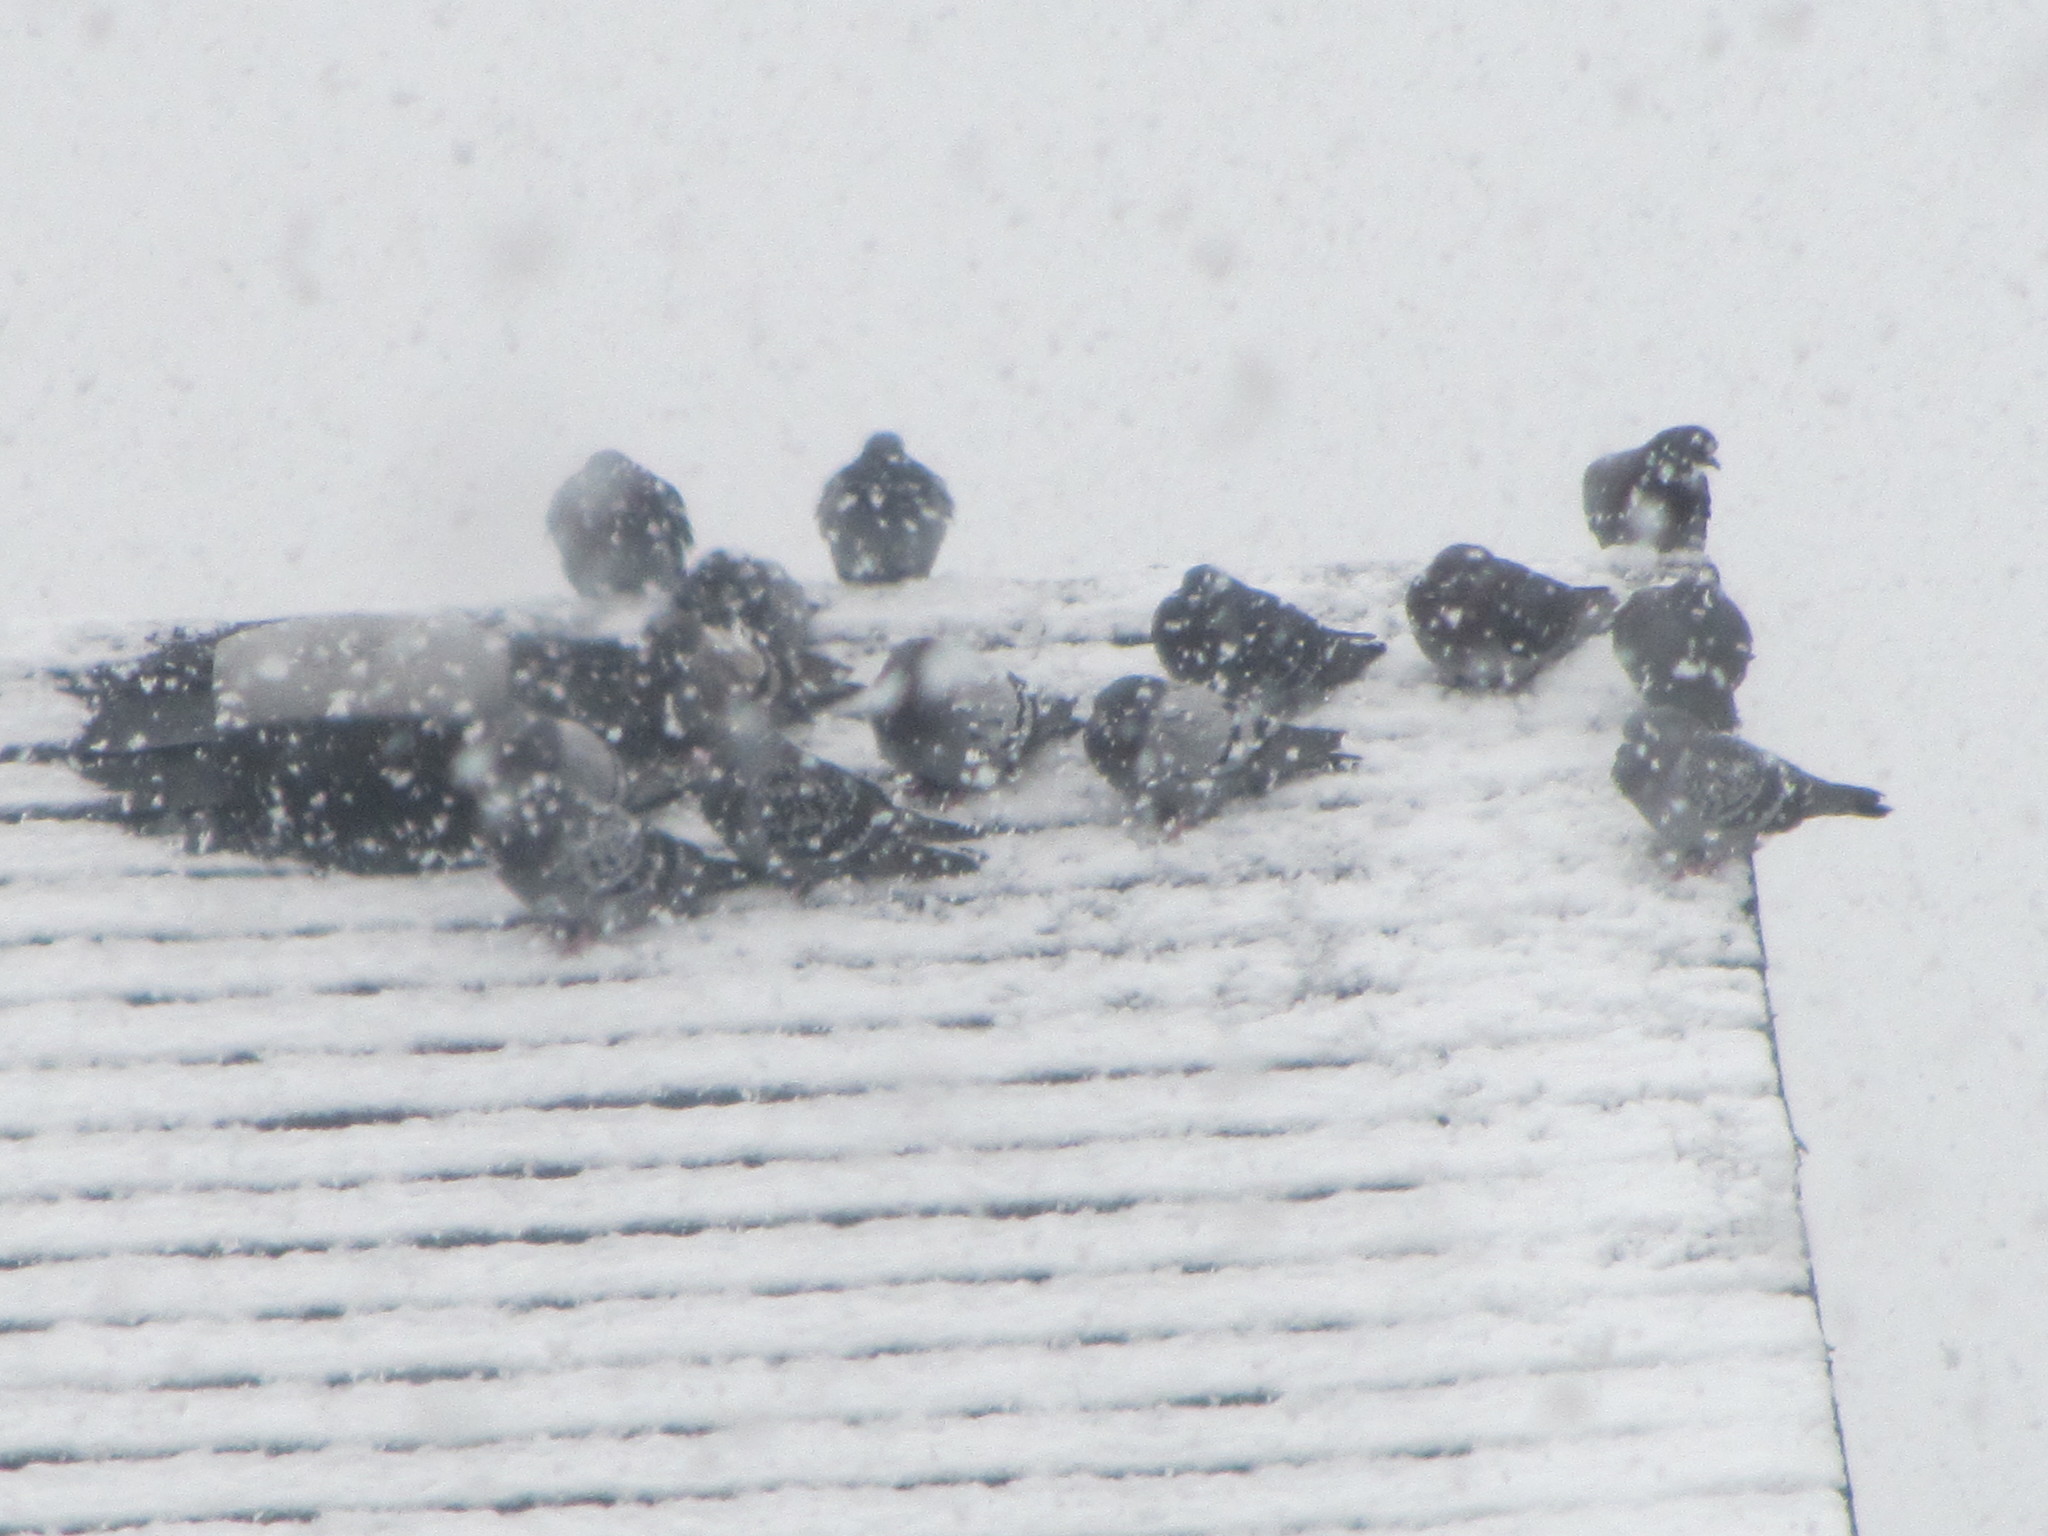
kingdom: Animalia
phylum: Chordata
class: Aves
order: Columbiformes
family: Columbidae
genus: Columba
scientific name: Columba livia
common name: Rock pigeon
